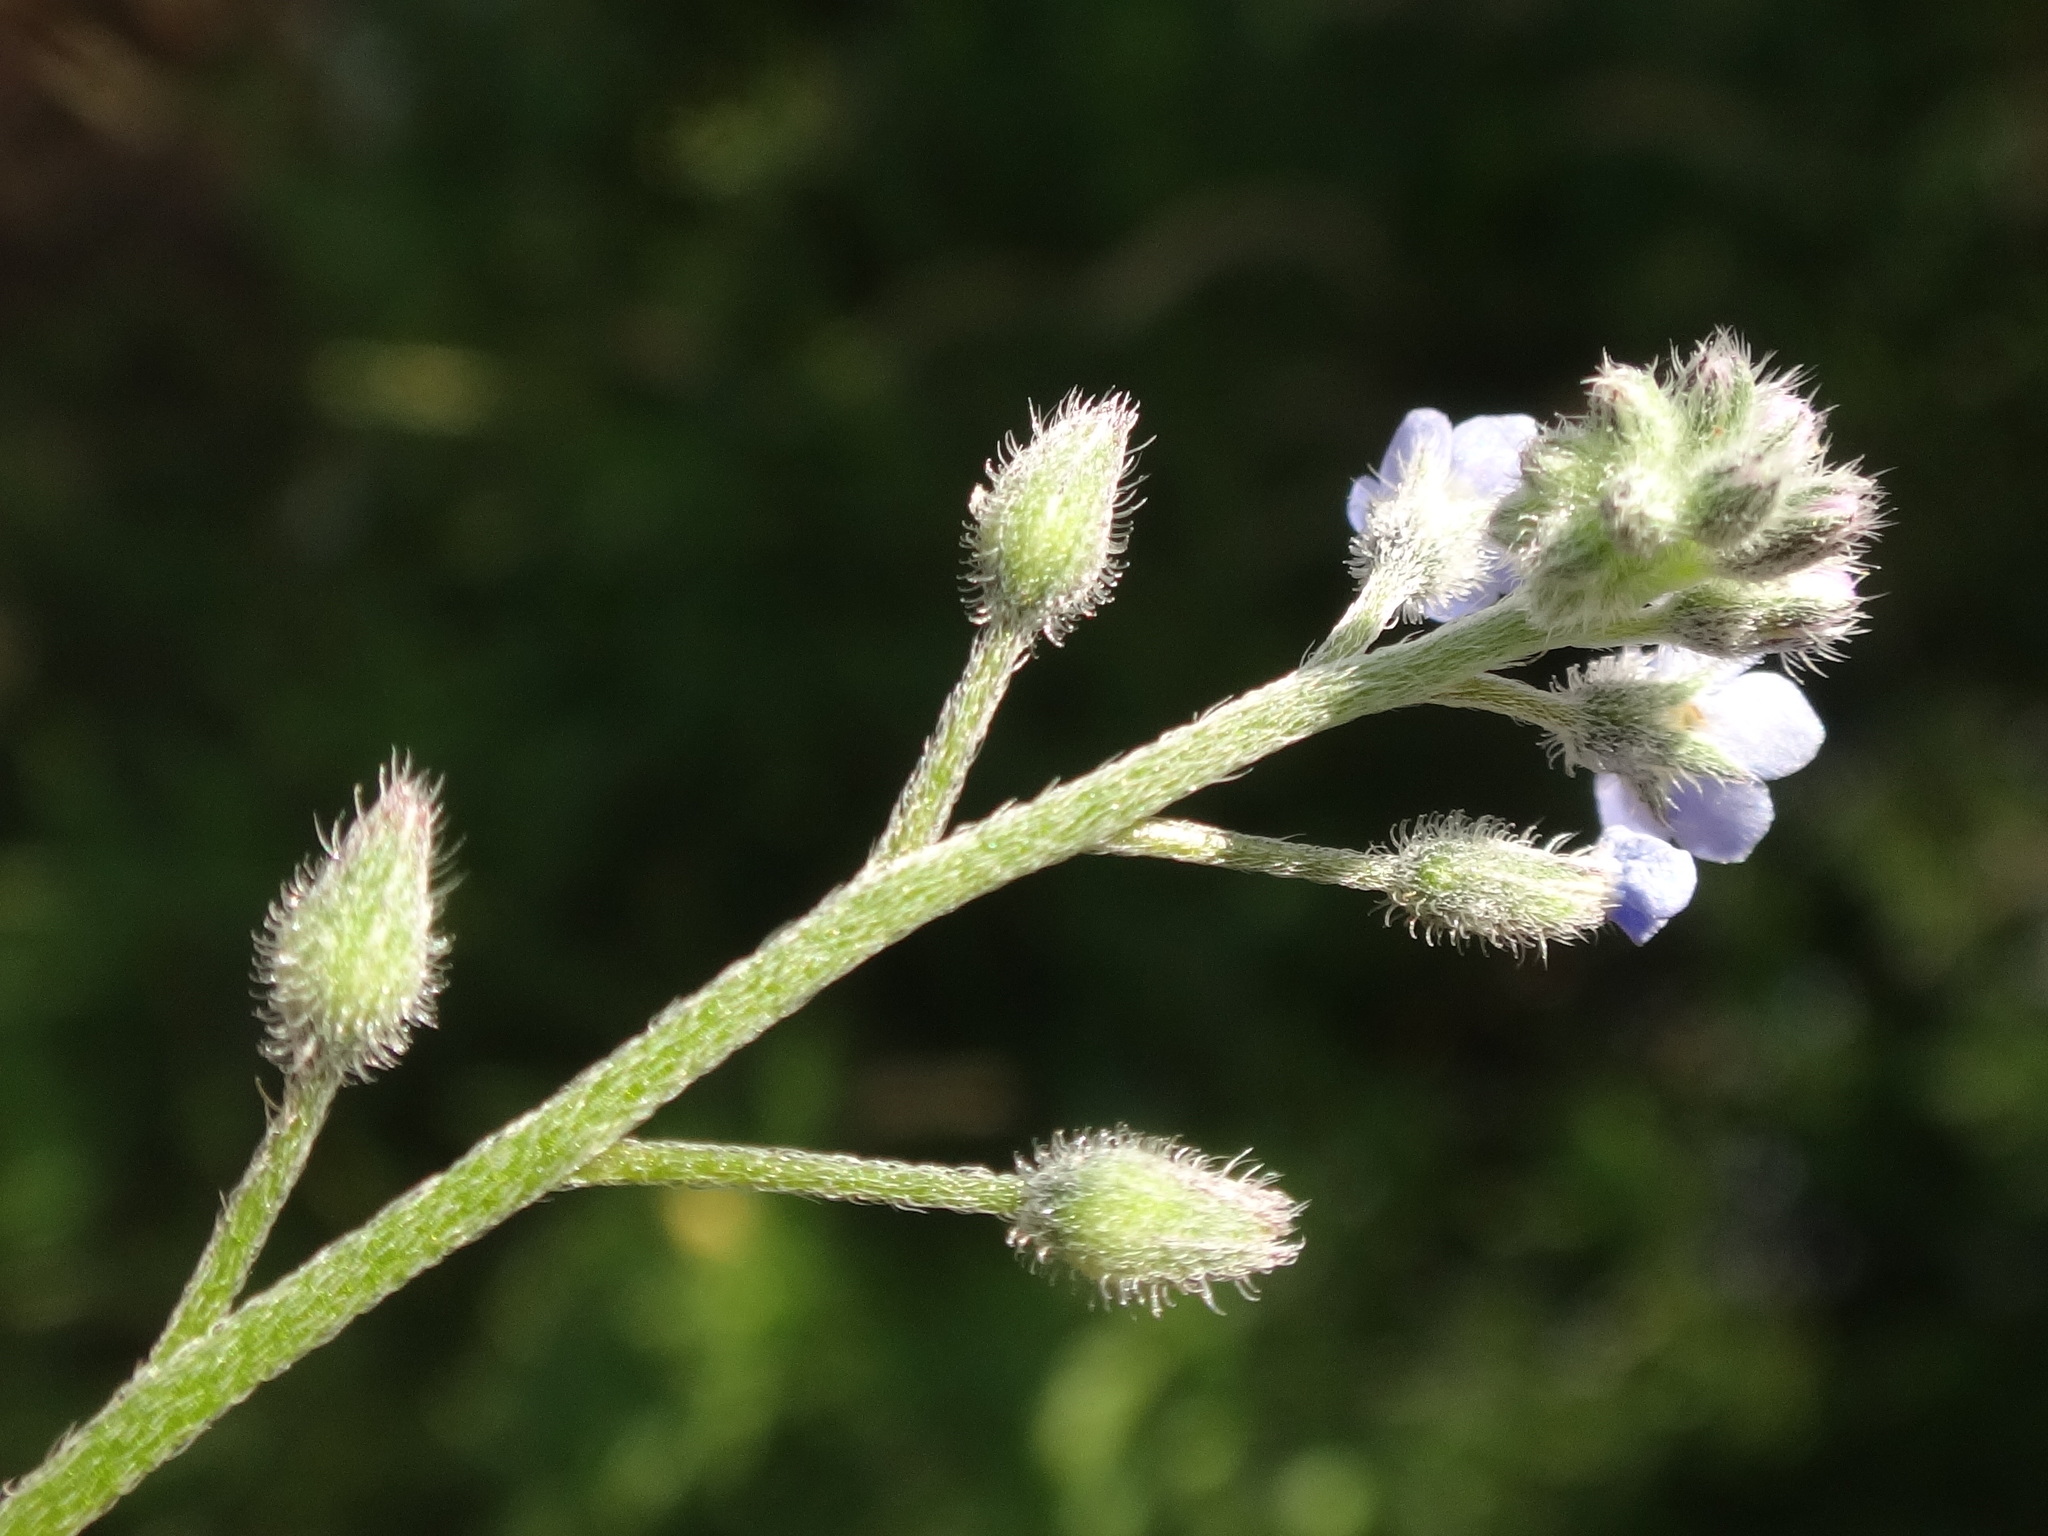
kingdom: Plantae
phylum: Tracheophyta
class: Magnoliopsida
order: Boraginales
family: Boraginaceae
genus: Myosotis
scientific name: Myosotis arvensis
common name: Field forget-me-not
